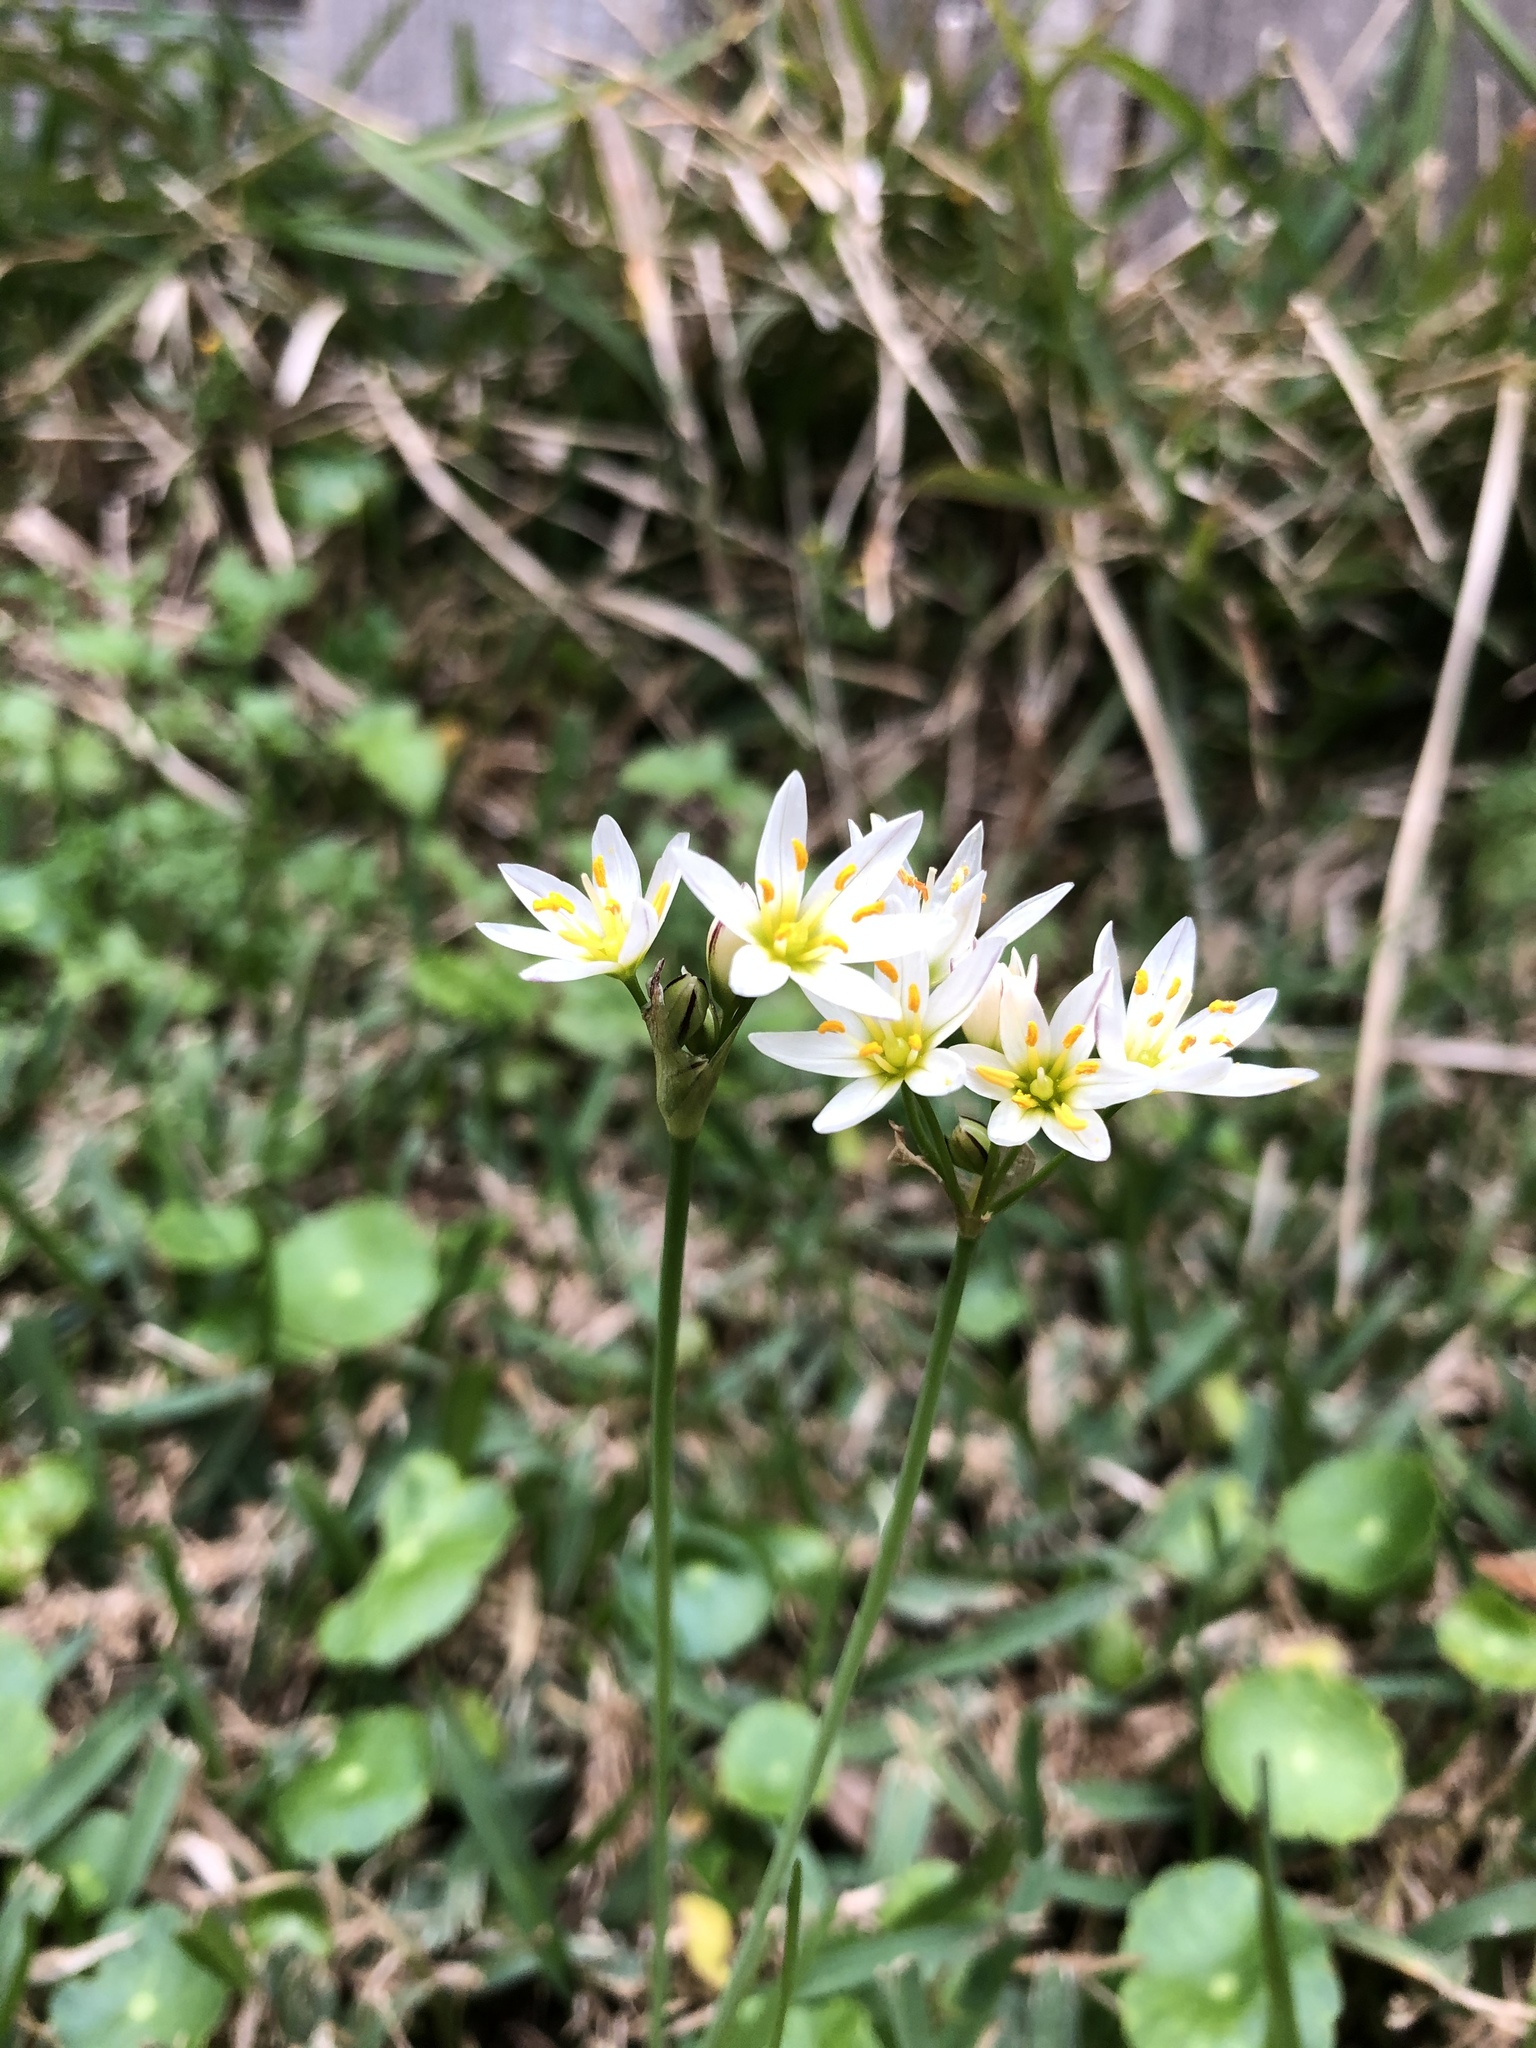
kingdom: Plantae
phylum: Tracheophyta
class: Liliopsida
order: Asparagales
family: Amaryllidaceae
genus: Nothoscordum
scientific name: Nothoscordum bivalve
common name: Crow-poison
